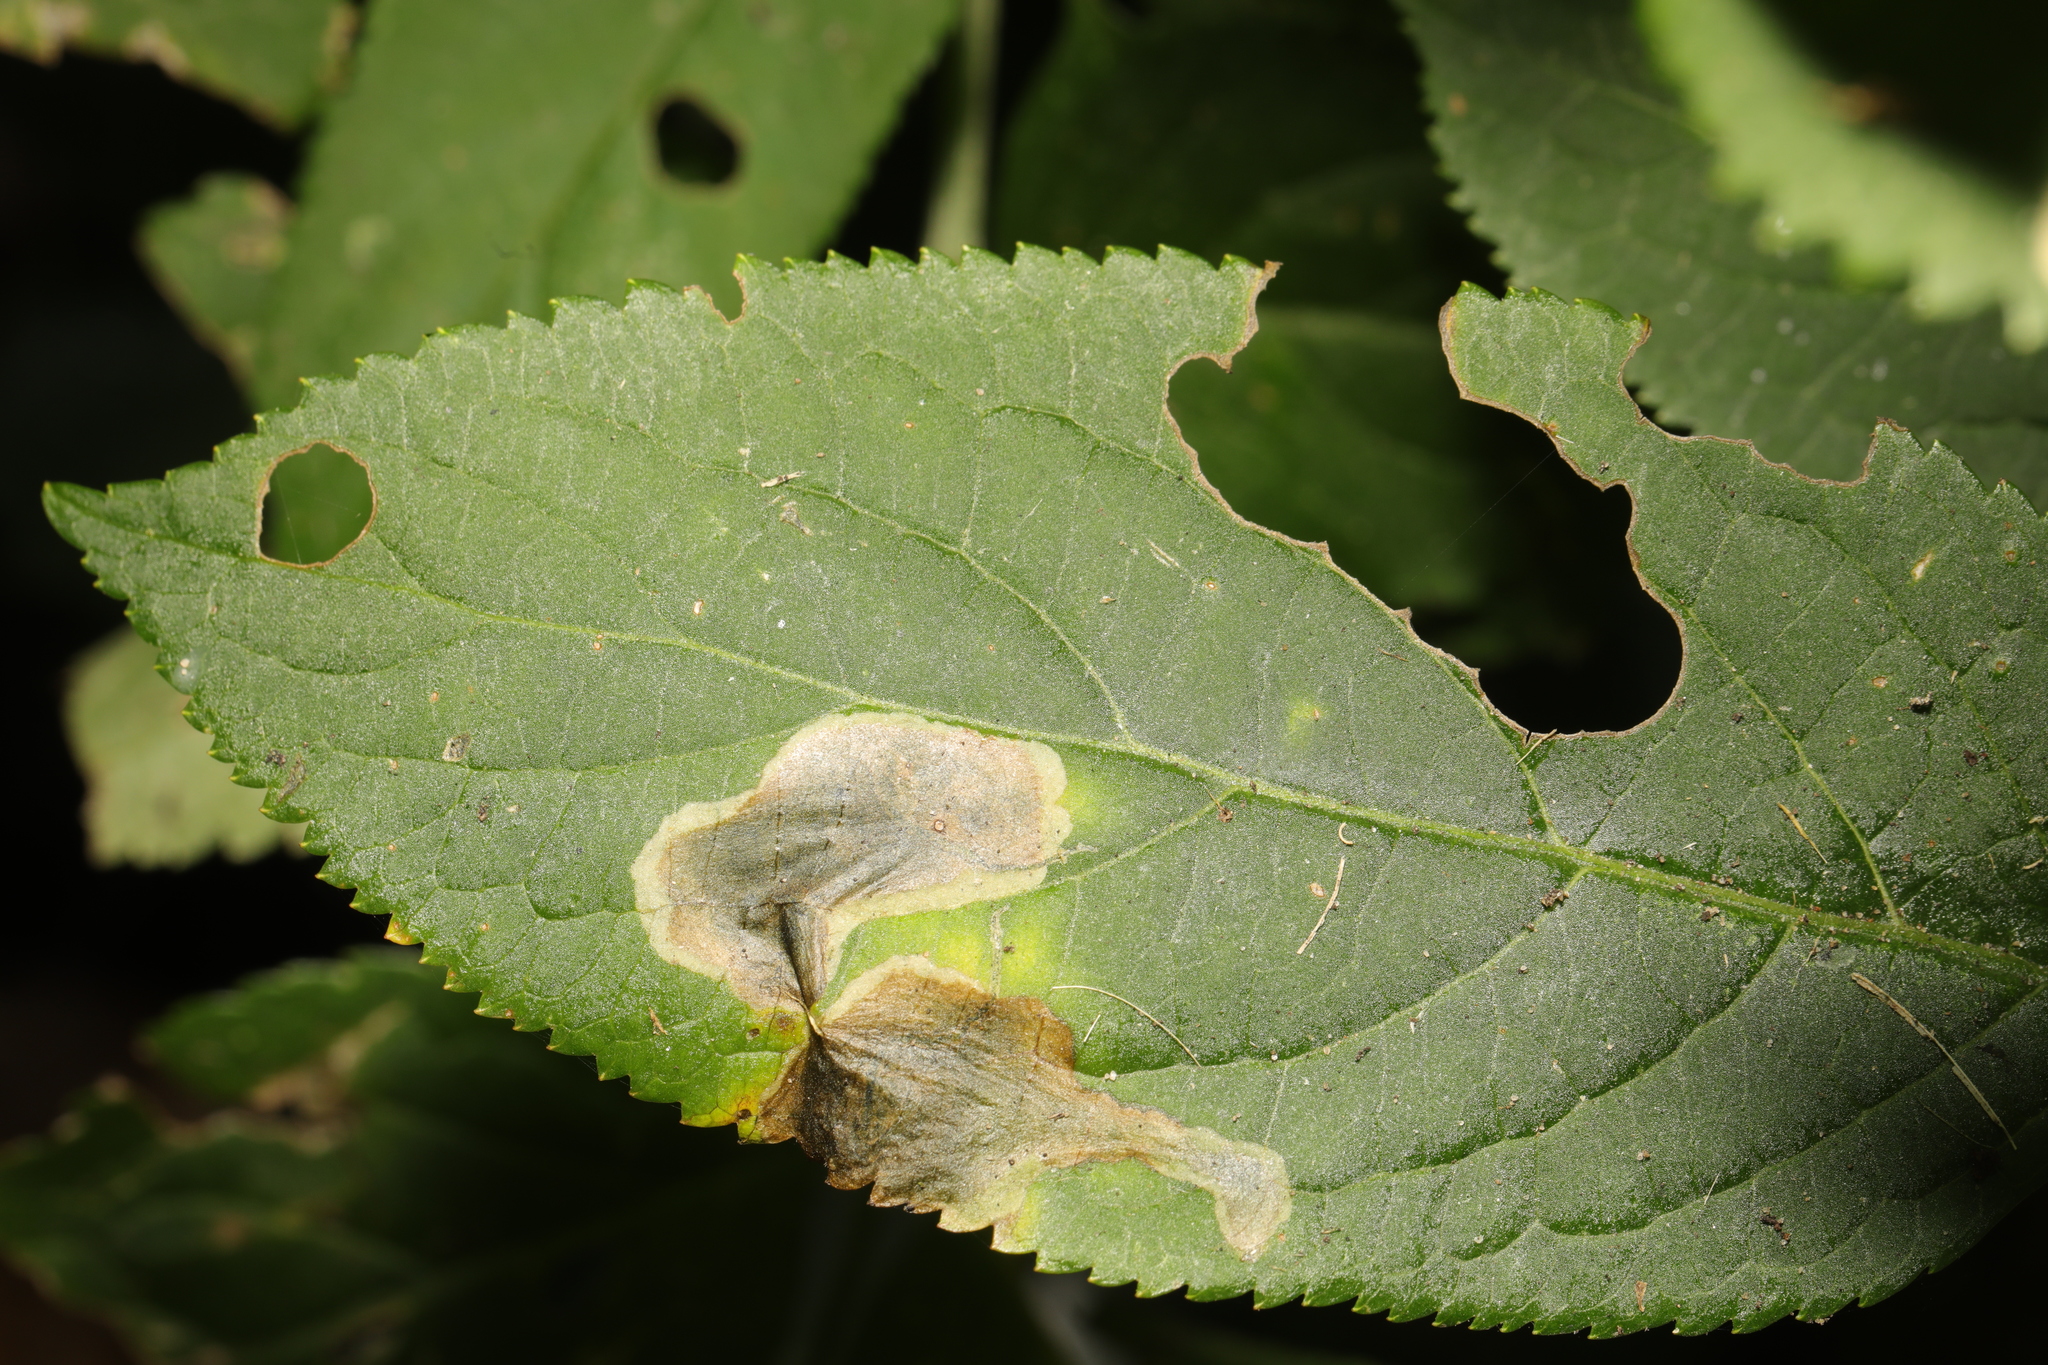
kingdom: Animalia
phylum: Arthropoda
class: Insecta
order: Diptera
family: Agromyzidae
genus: Liriomyza
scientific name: Liriomyza amoena
